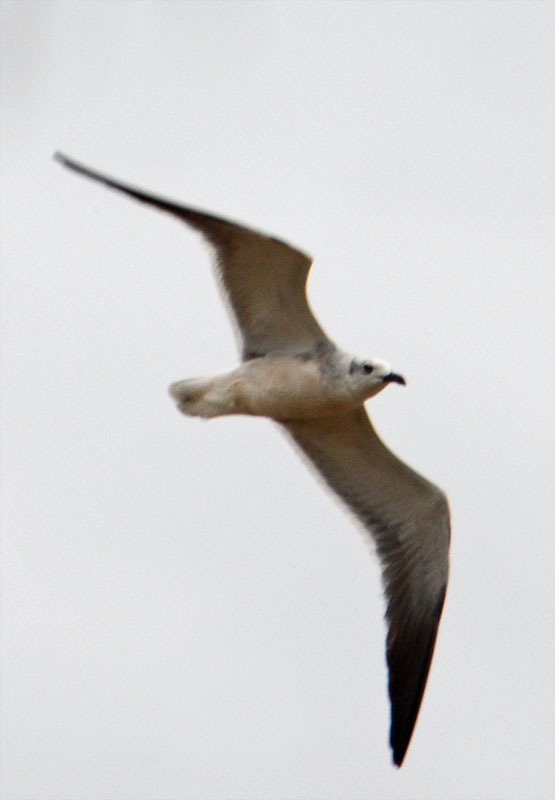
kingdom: Animalia
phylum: Chordata
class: Aves
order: Charadriiformes
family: Laridae
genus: Leucophaeus
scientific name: Leucophaeus atricilla
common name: Laughing gull
